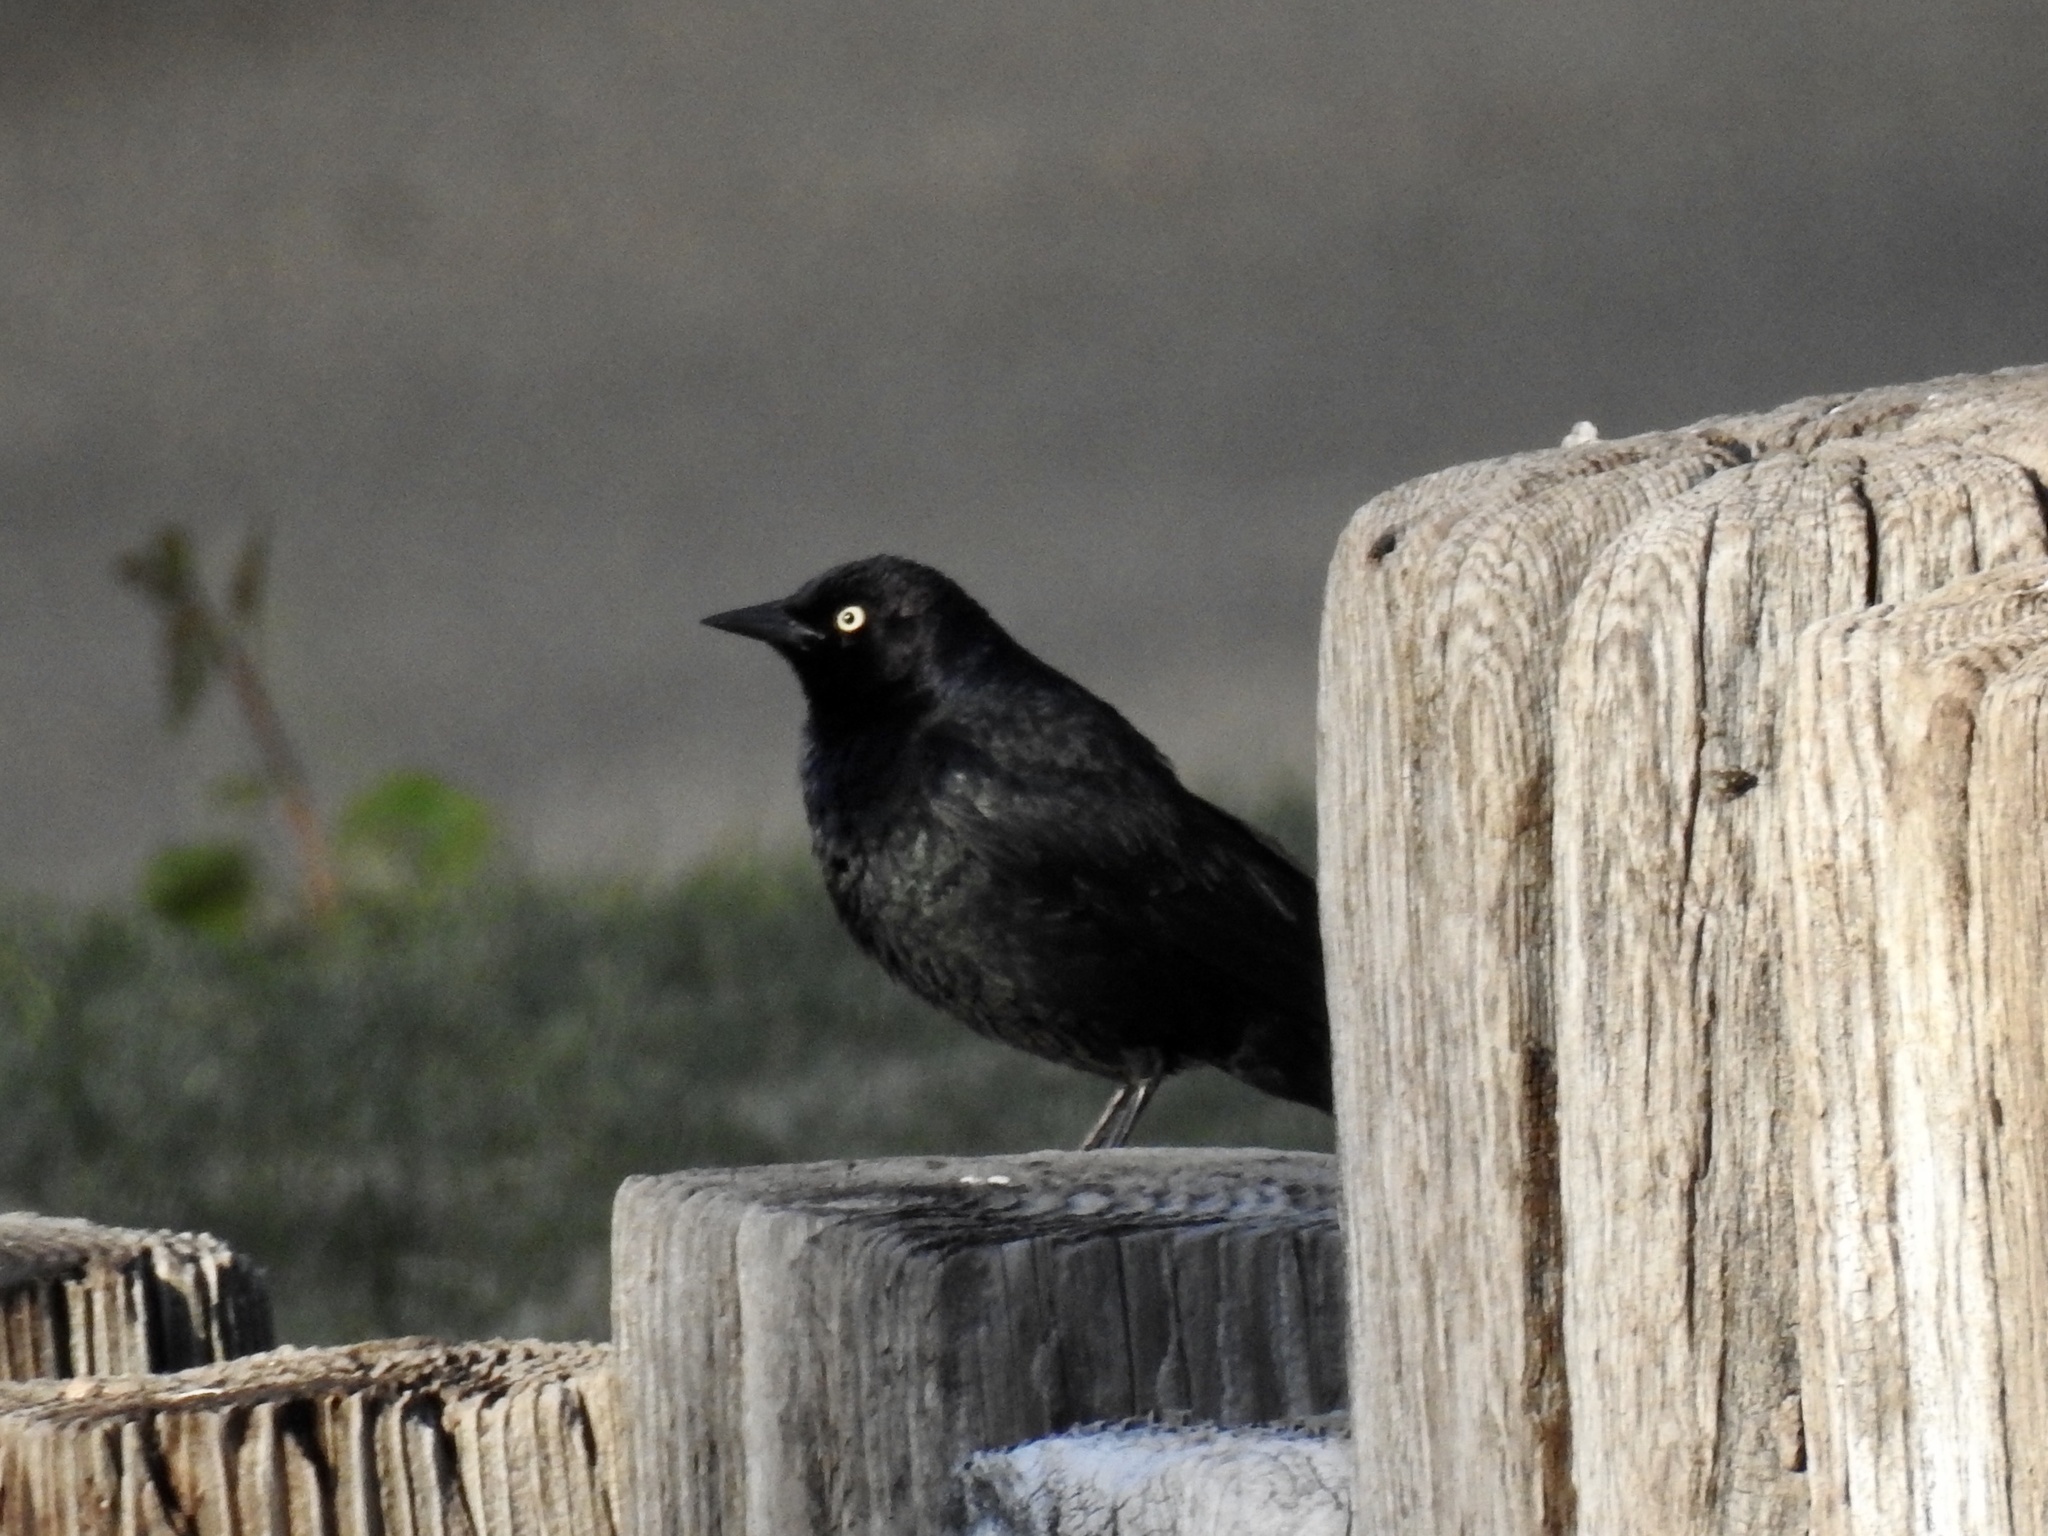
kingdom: Animalia
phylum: Chordata
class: Aves
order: Passeriformes
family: Icteridae
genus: Euphagus
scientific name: Euphagus cyanocephalus
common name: Brewer's blackbird
